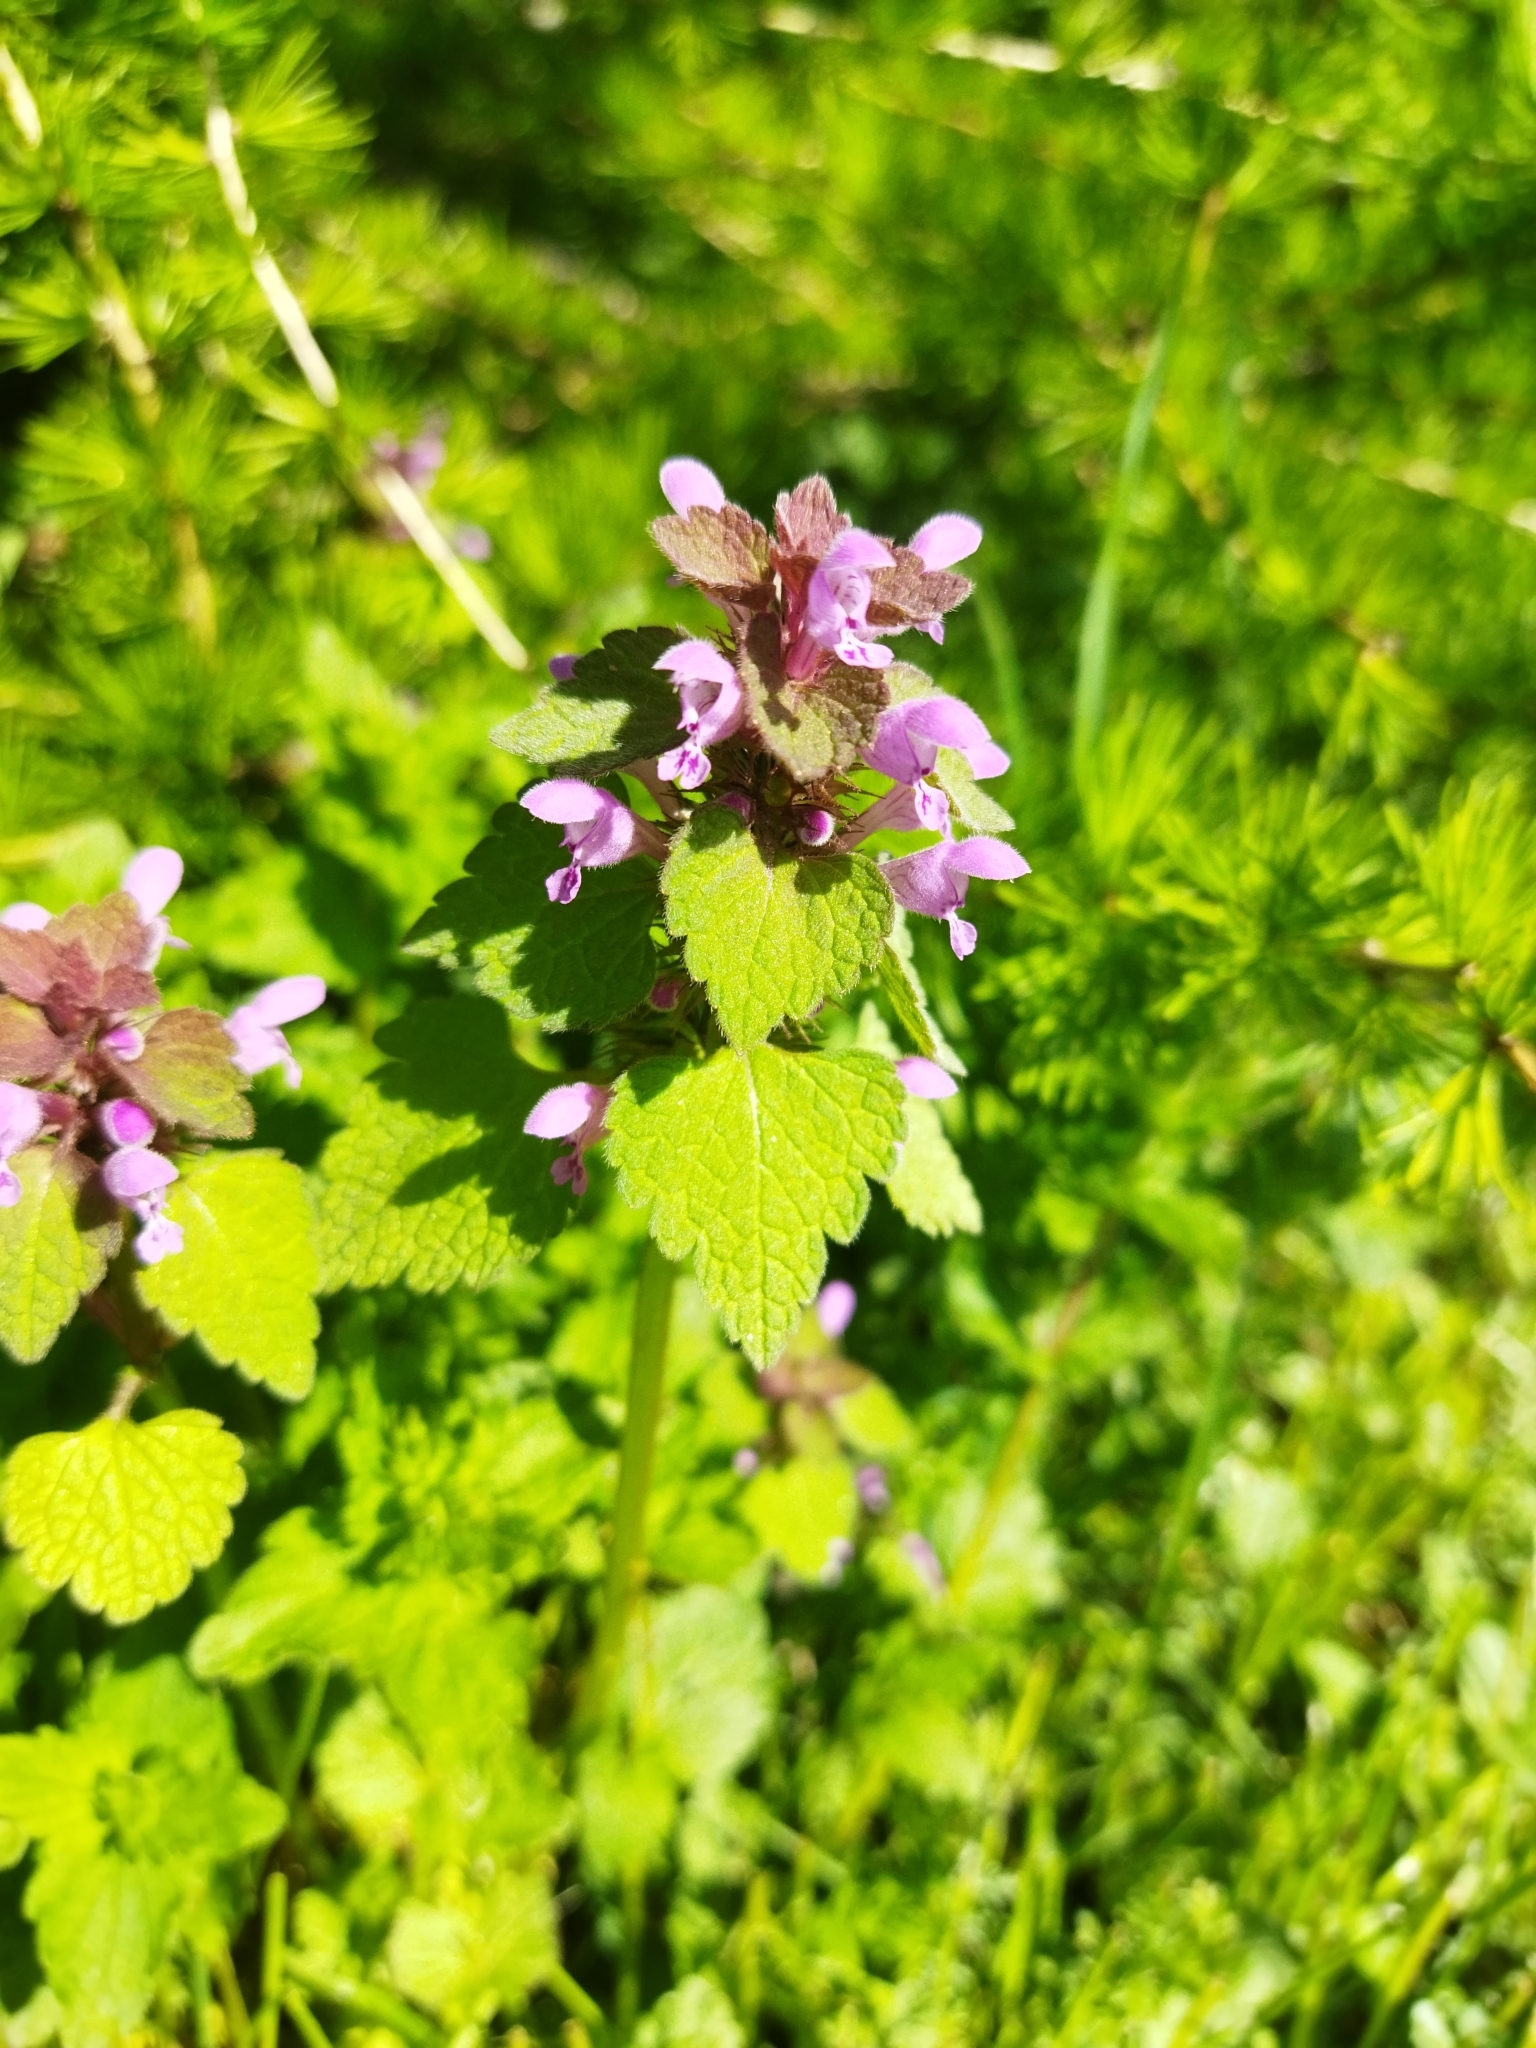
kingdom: Plantae
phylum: Tracheophyta
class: Magnoliopsida
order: Lamiales
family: Lamiaceae
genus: Lamium
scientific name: Lamium purpureum
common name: Red dead-nettle
